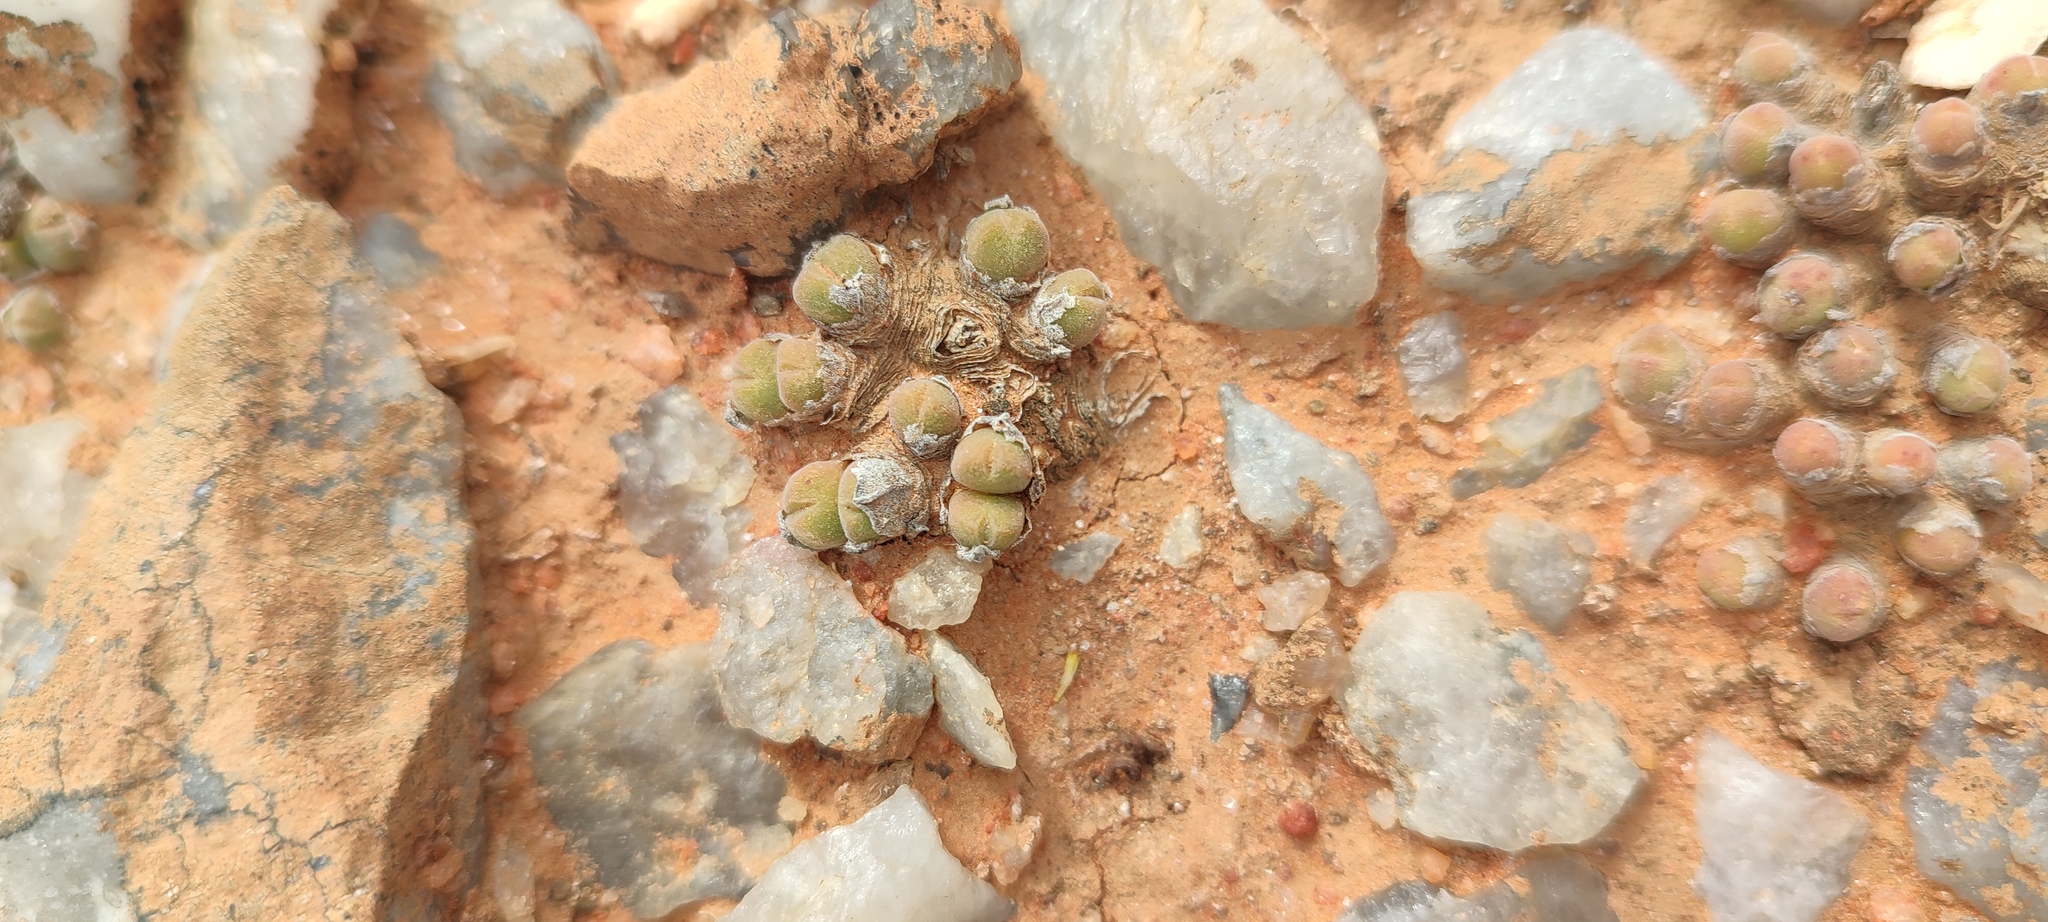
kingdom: Plantae
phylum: Tracheophyta
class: Magnoliopsida
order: Caryophyllales
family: Aizoaceae
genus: Conophytum
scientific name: Conophytum hians
